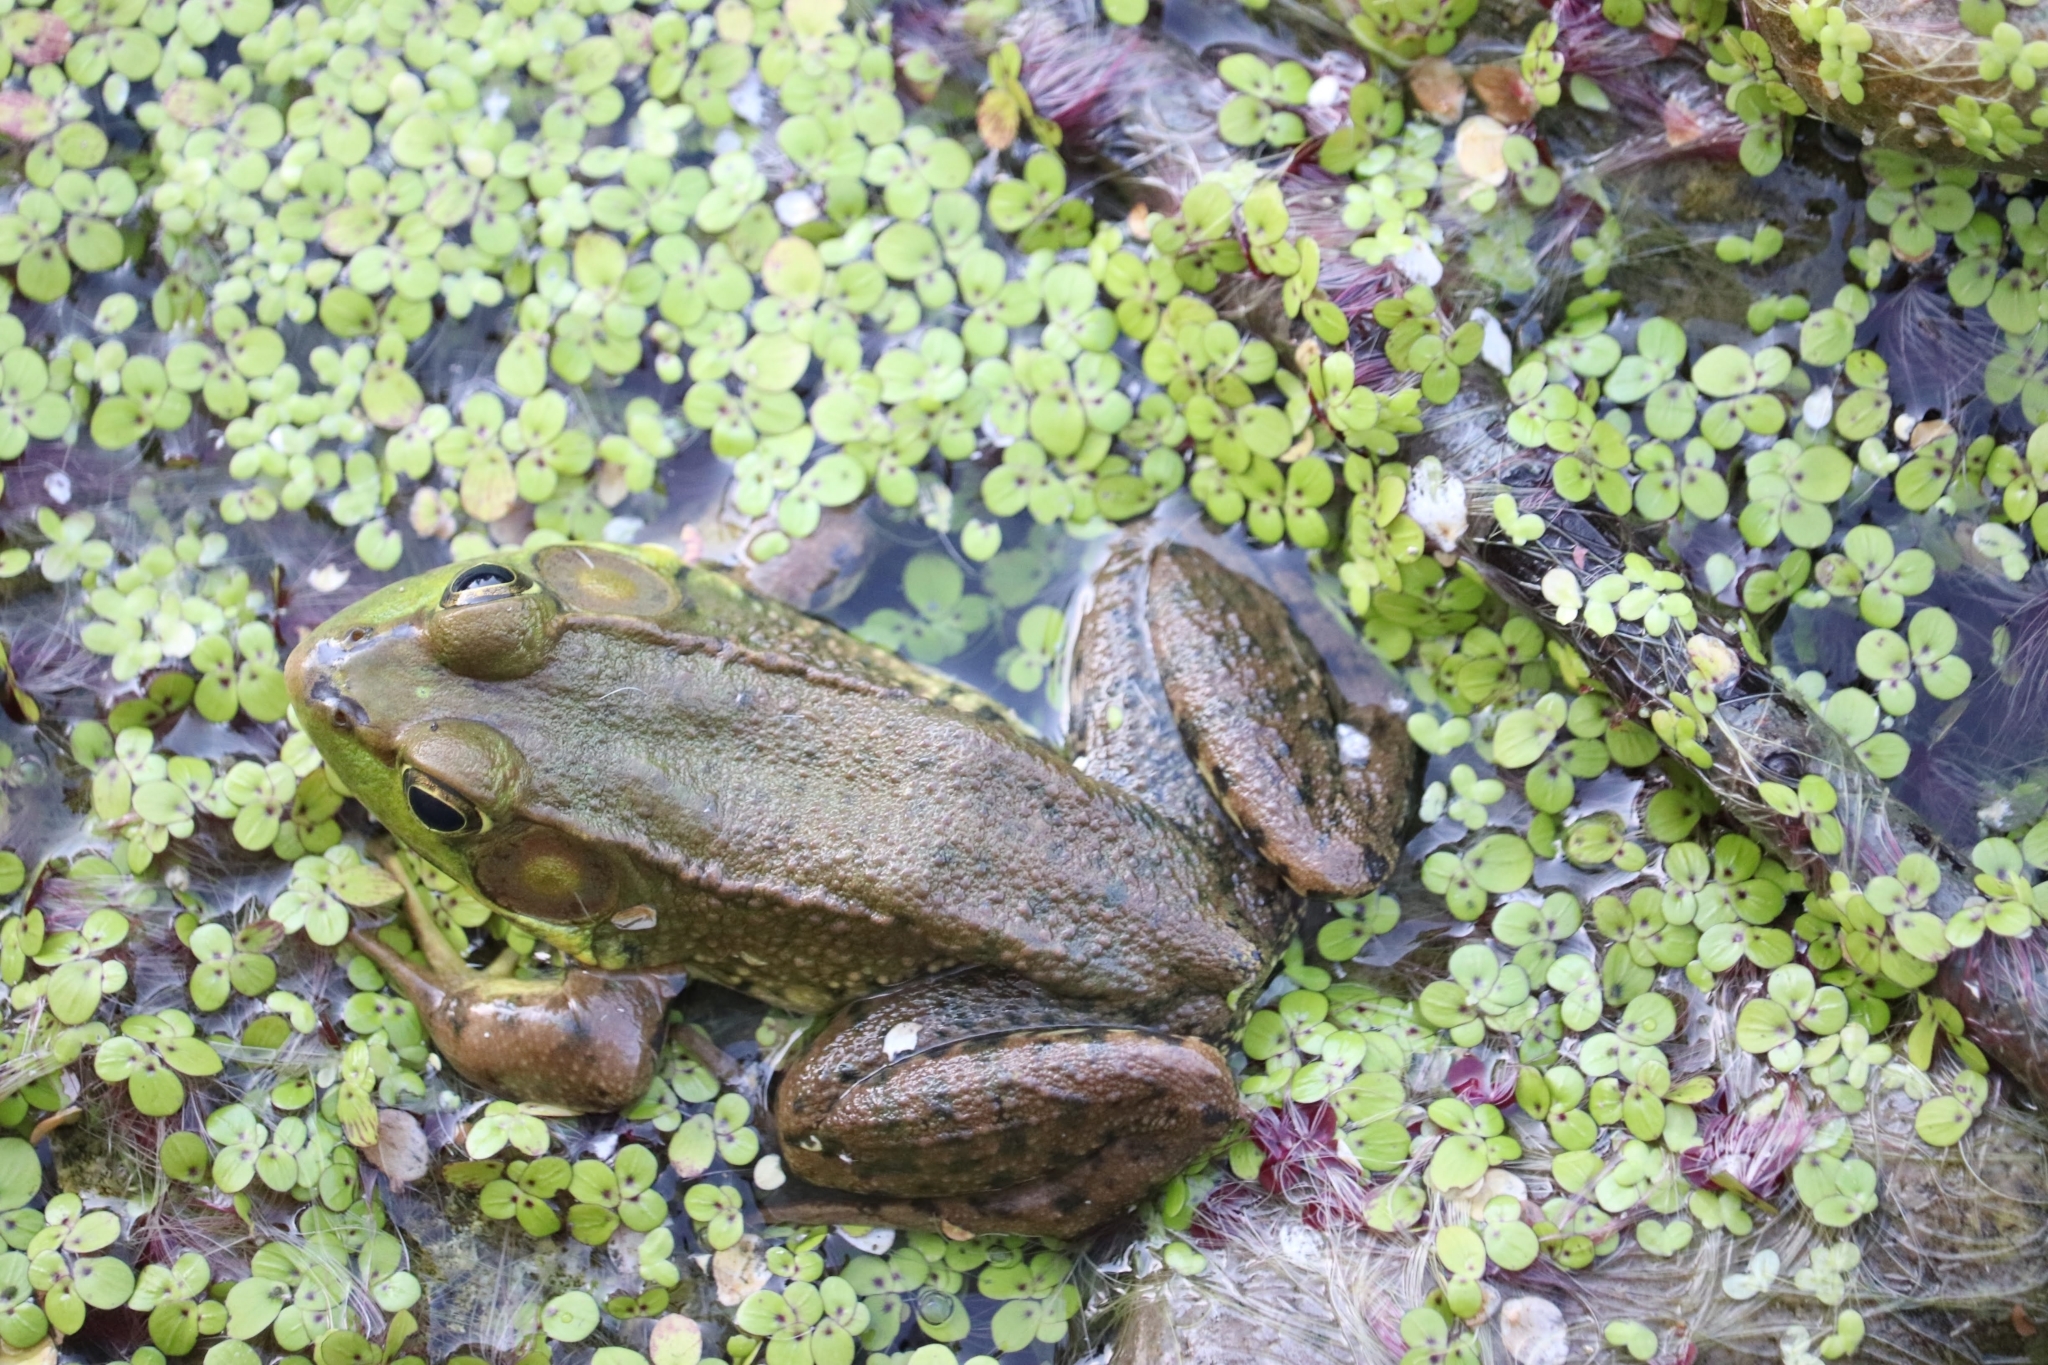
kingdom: Animalia
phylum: Chordata
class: Amphibia
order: Anura
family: Ranidae
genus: Lithobates
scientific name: Lithobates clamitans
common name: Green frog
